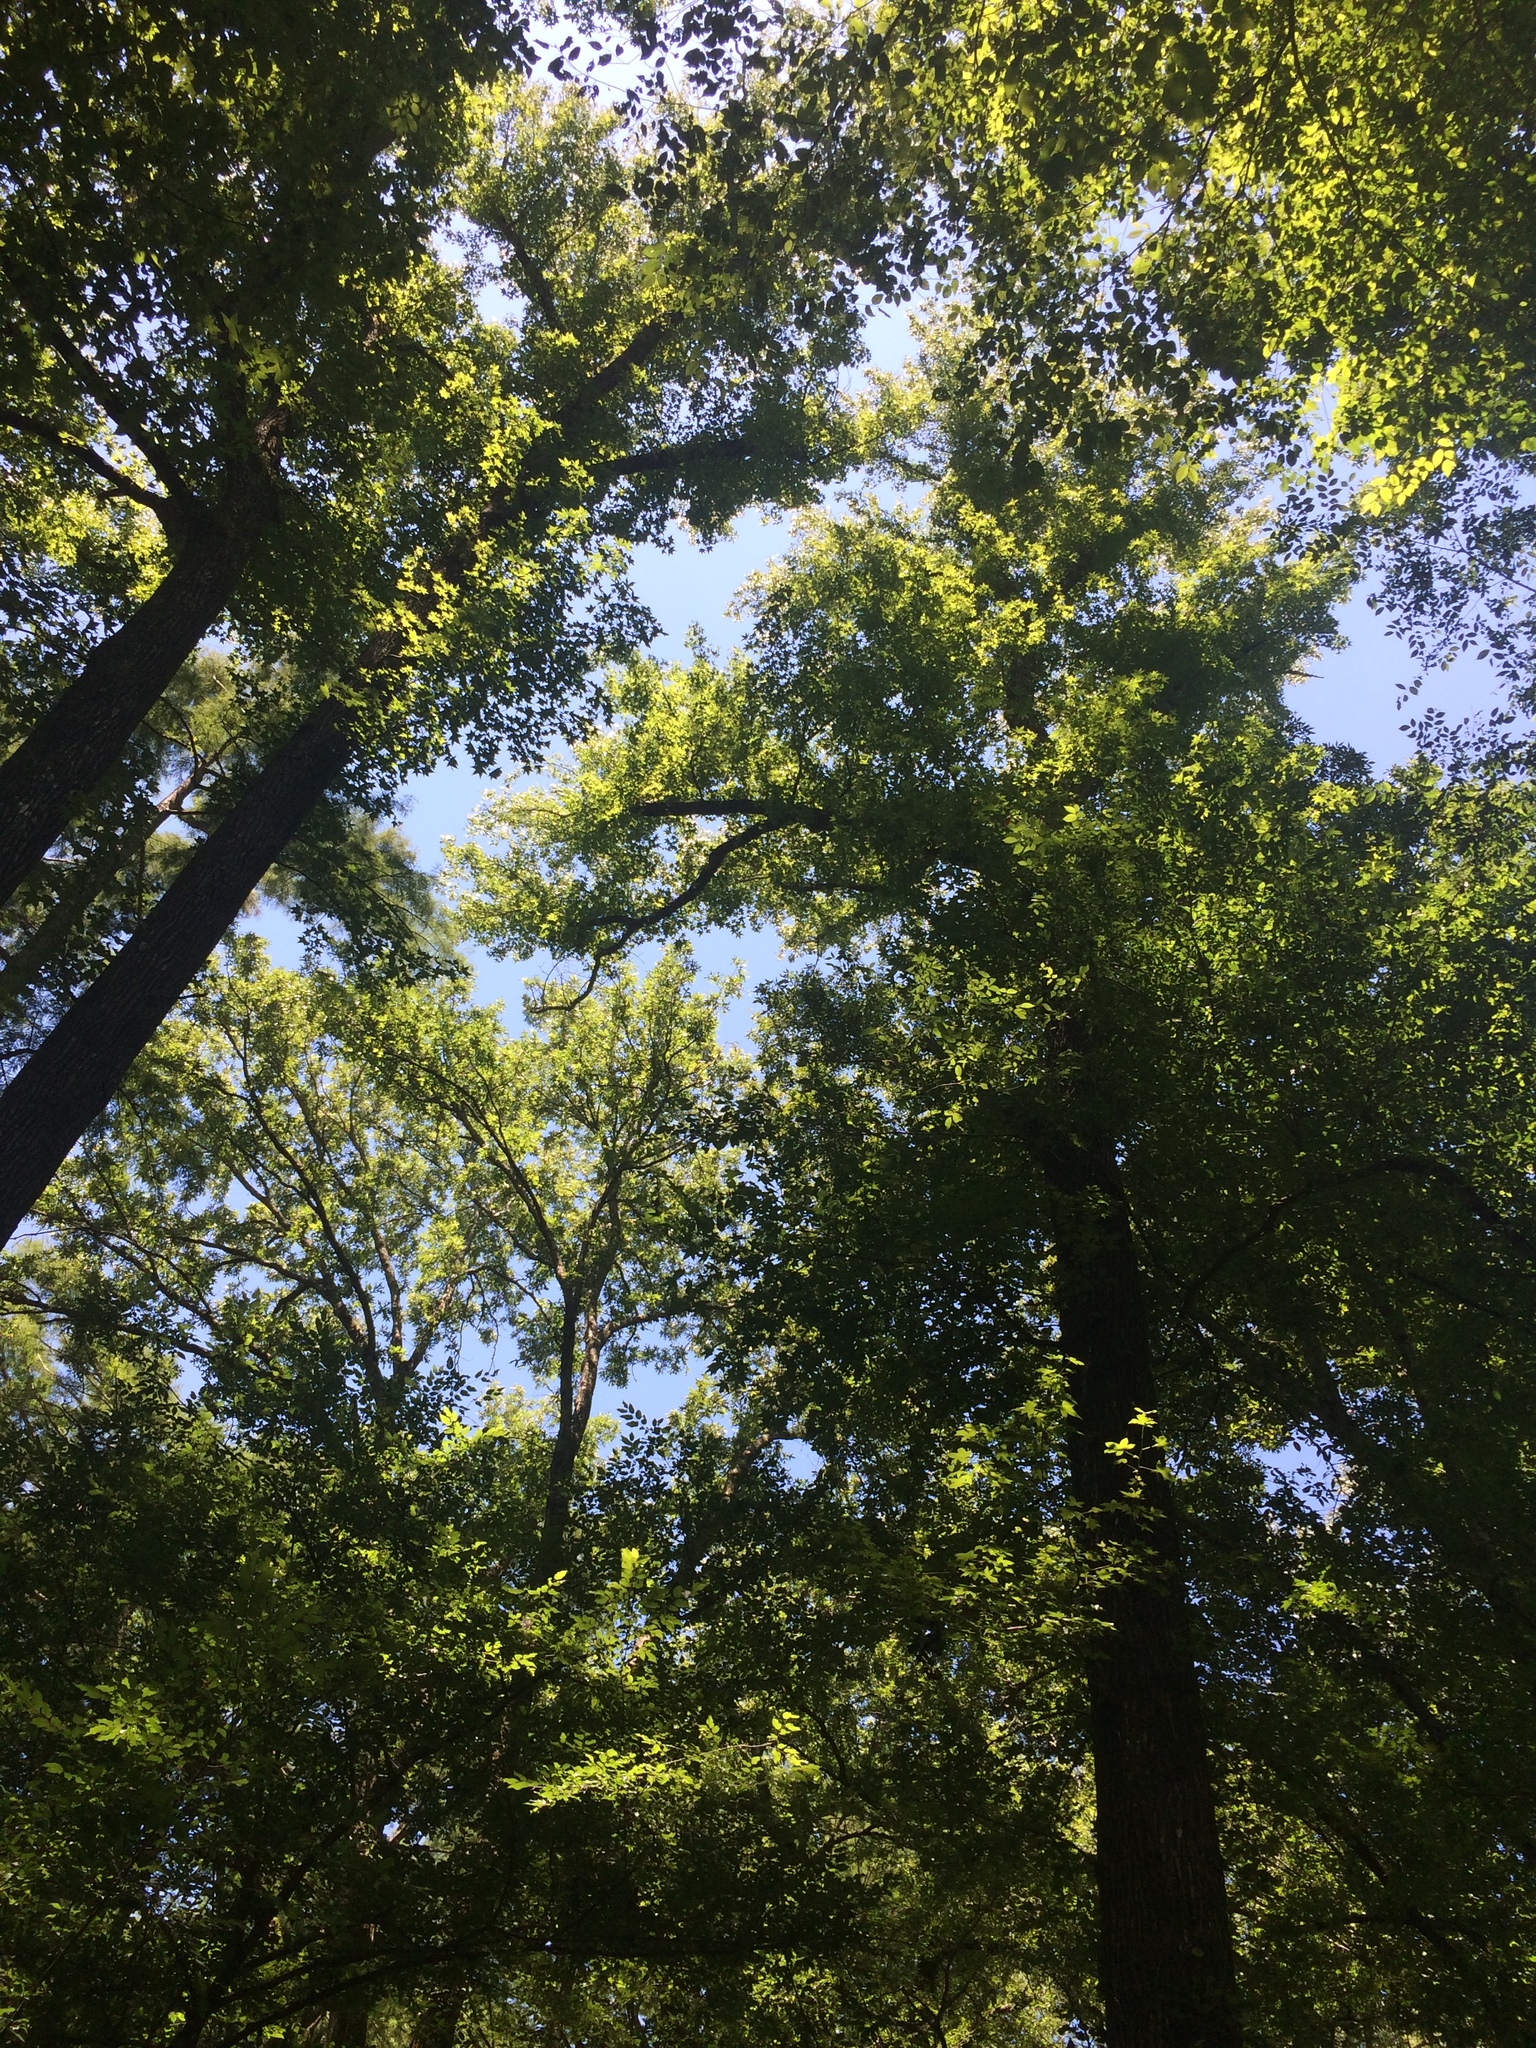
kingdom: Plantae
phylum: Tracheophyta
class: Liliopsida
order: Poales
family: Cyperaceae
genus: Carex
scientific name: Carex intumescens
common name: Greater bladder sedge
